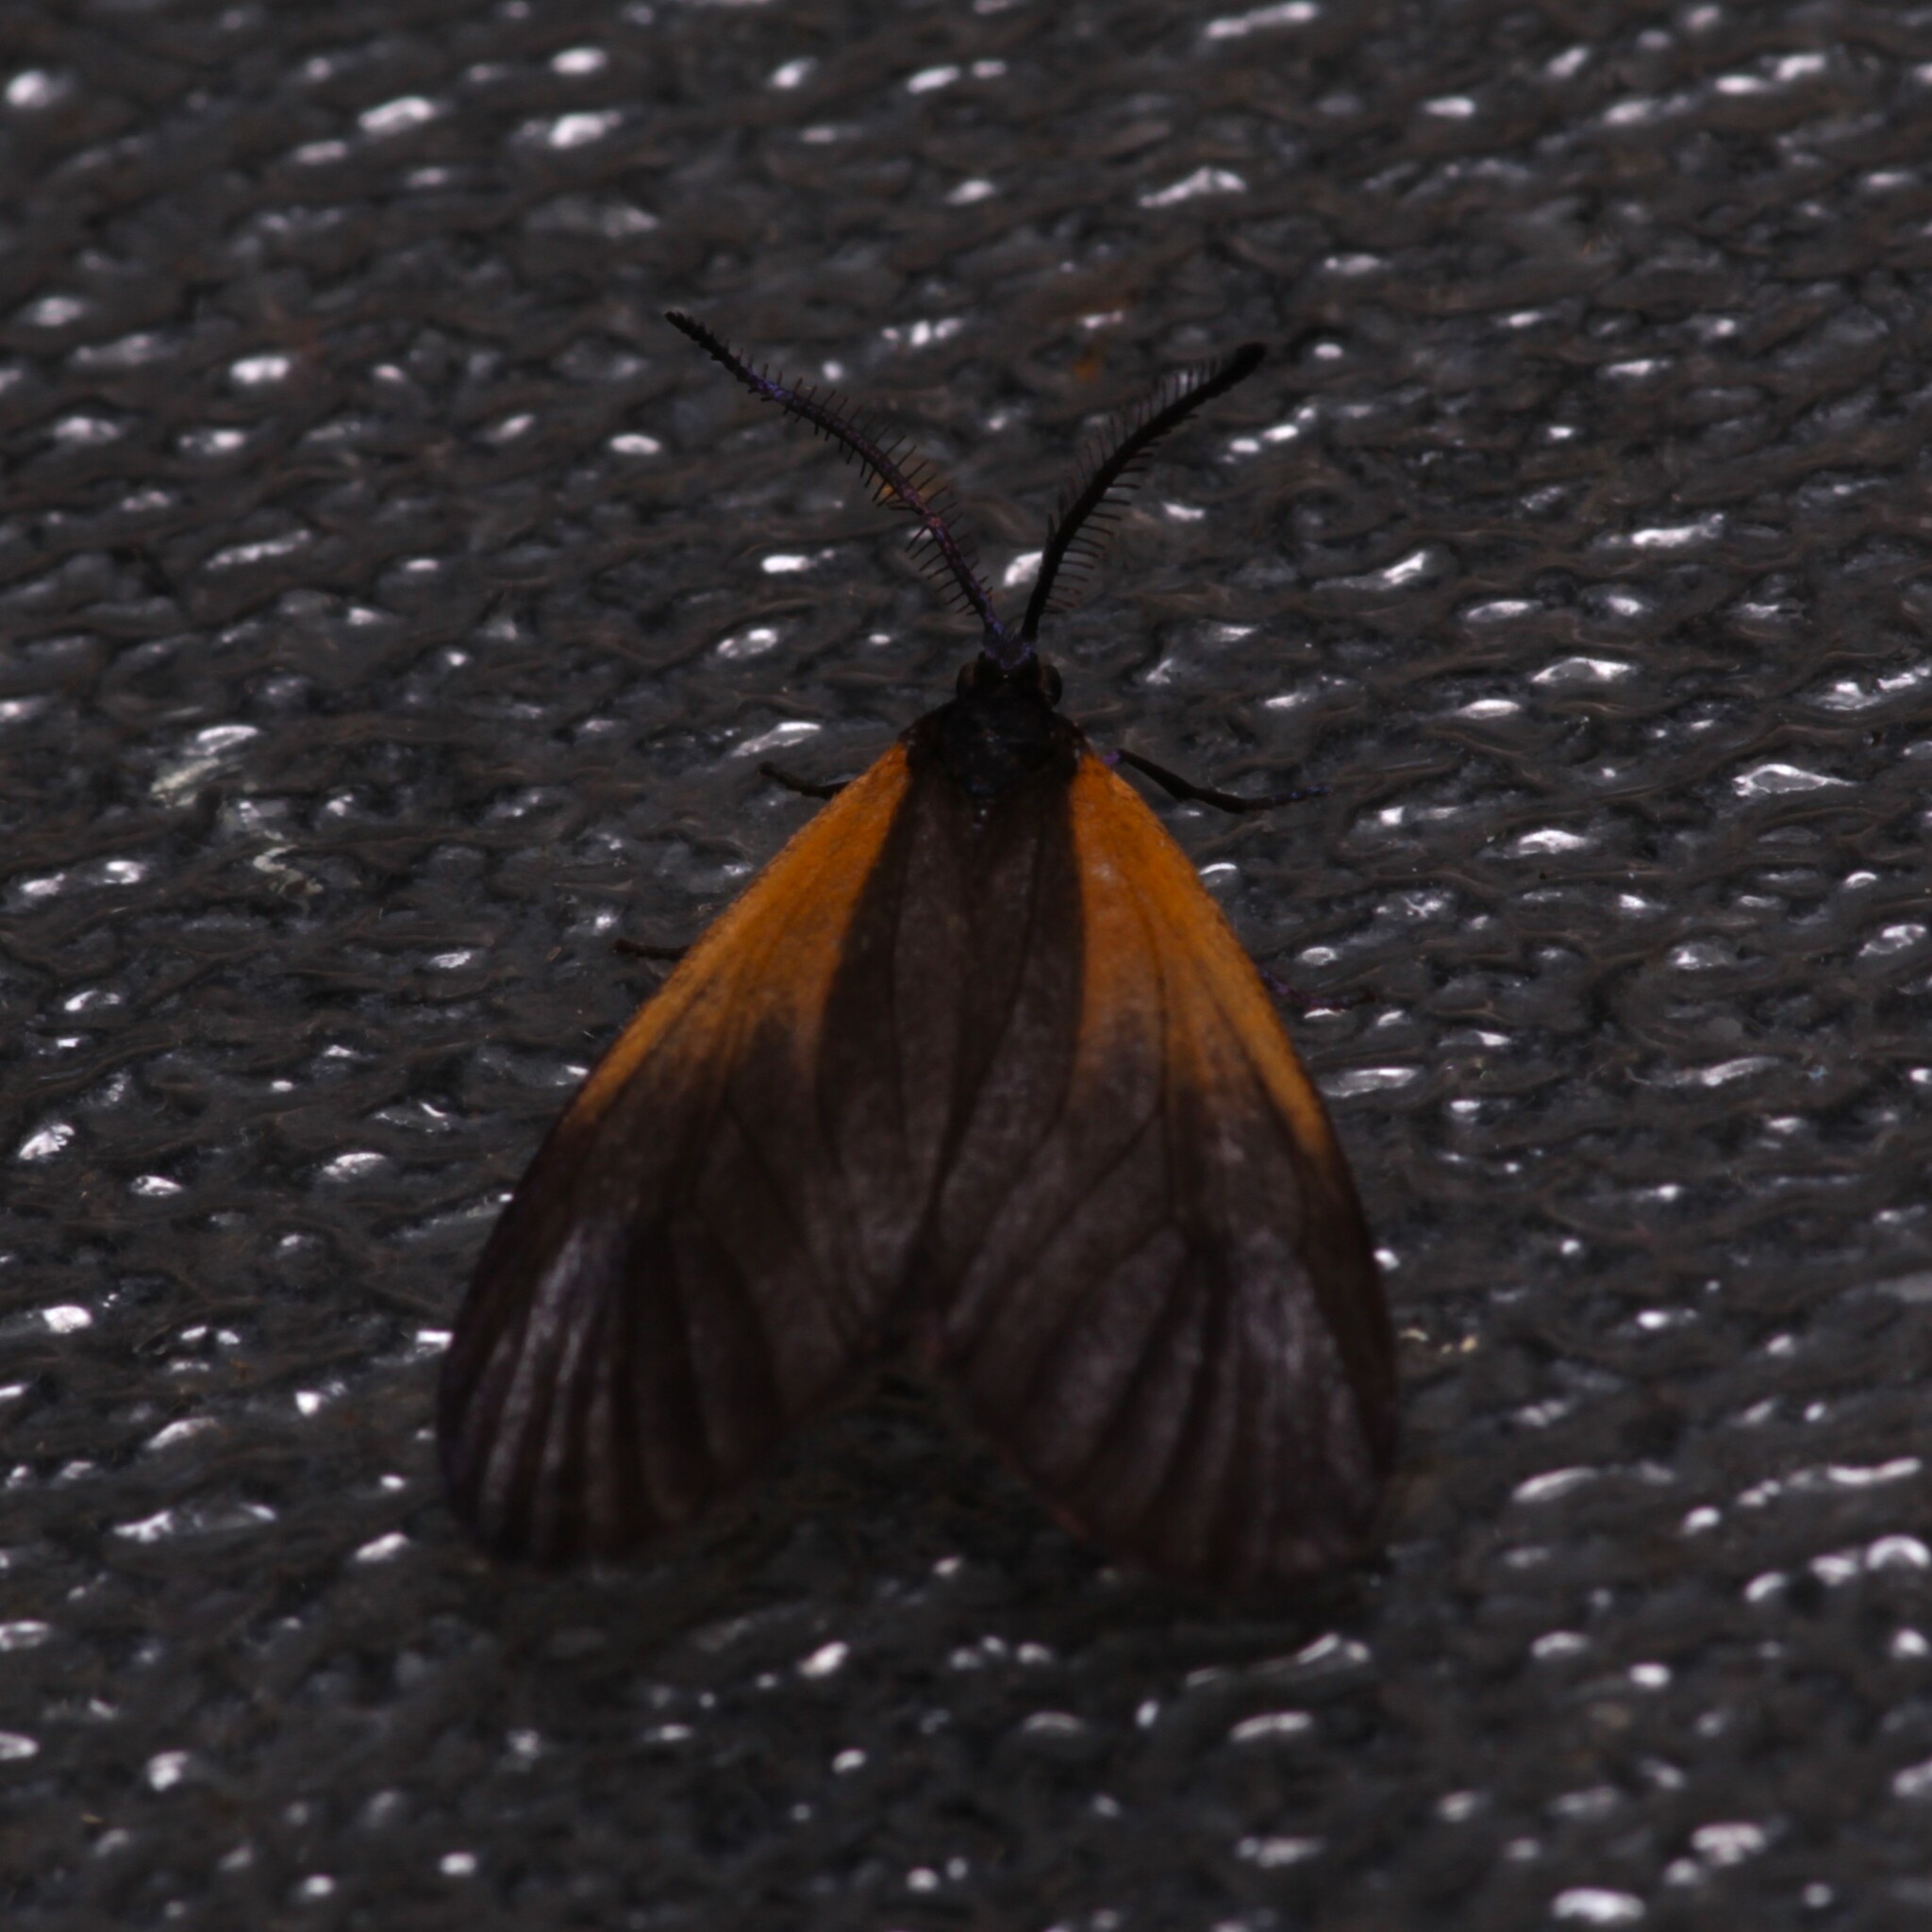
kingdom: Animalia
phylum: Arthropoda
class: Insecta
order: Lepidoptera
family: Zygaenidae
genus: Malthaca
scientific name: Malthaca dimidiata
